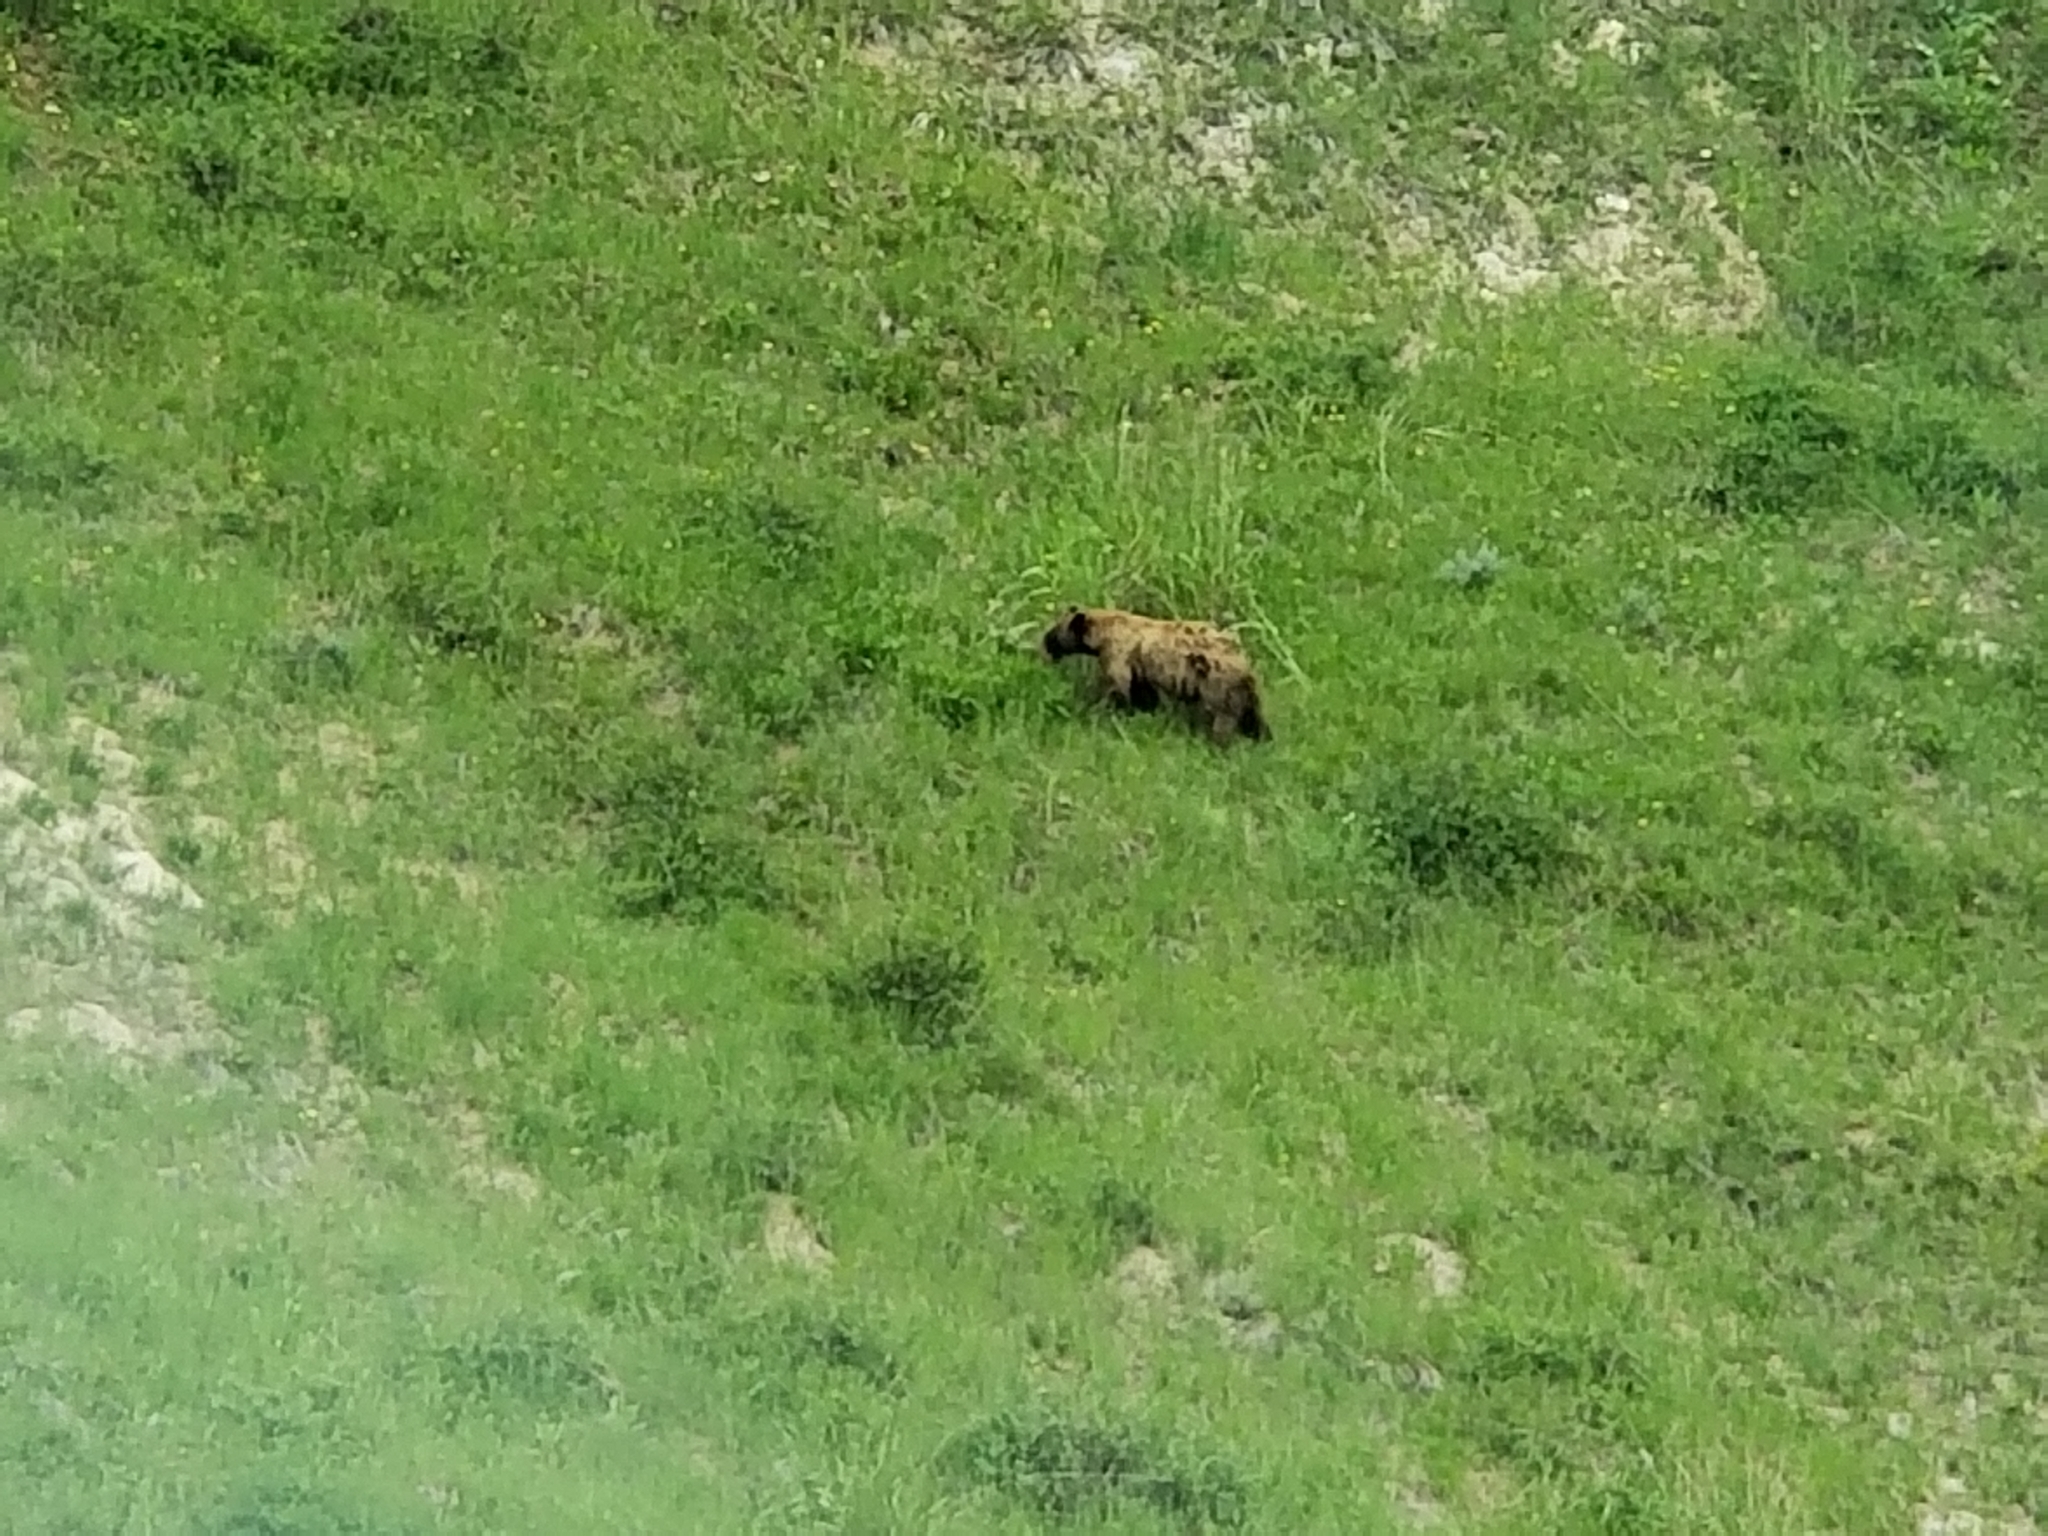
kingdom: Animalia
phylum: Chordata
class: Mammalia
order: Carnivora
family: Ursidae
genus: Ursus
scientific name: Ursus americanus
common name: American black bear
